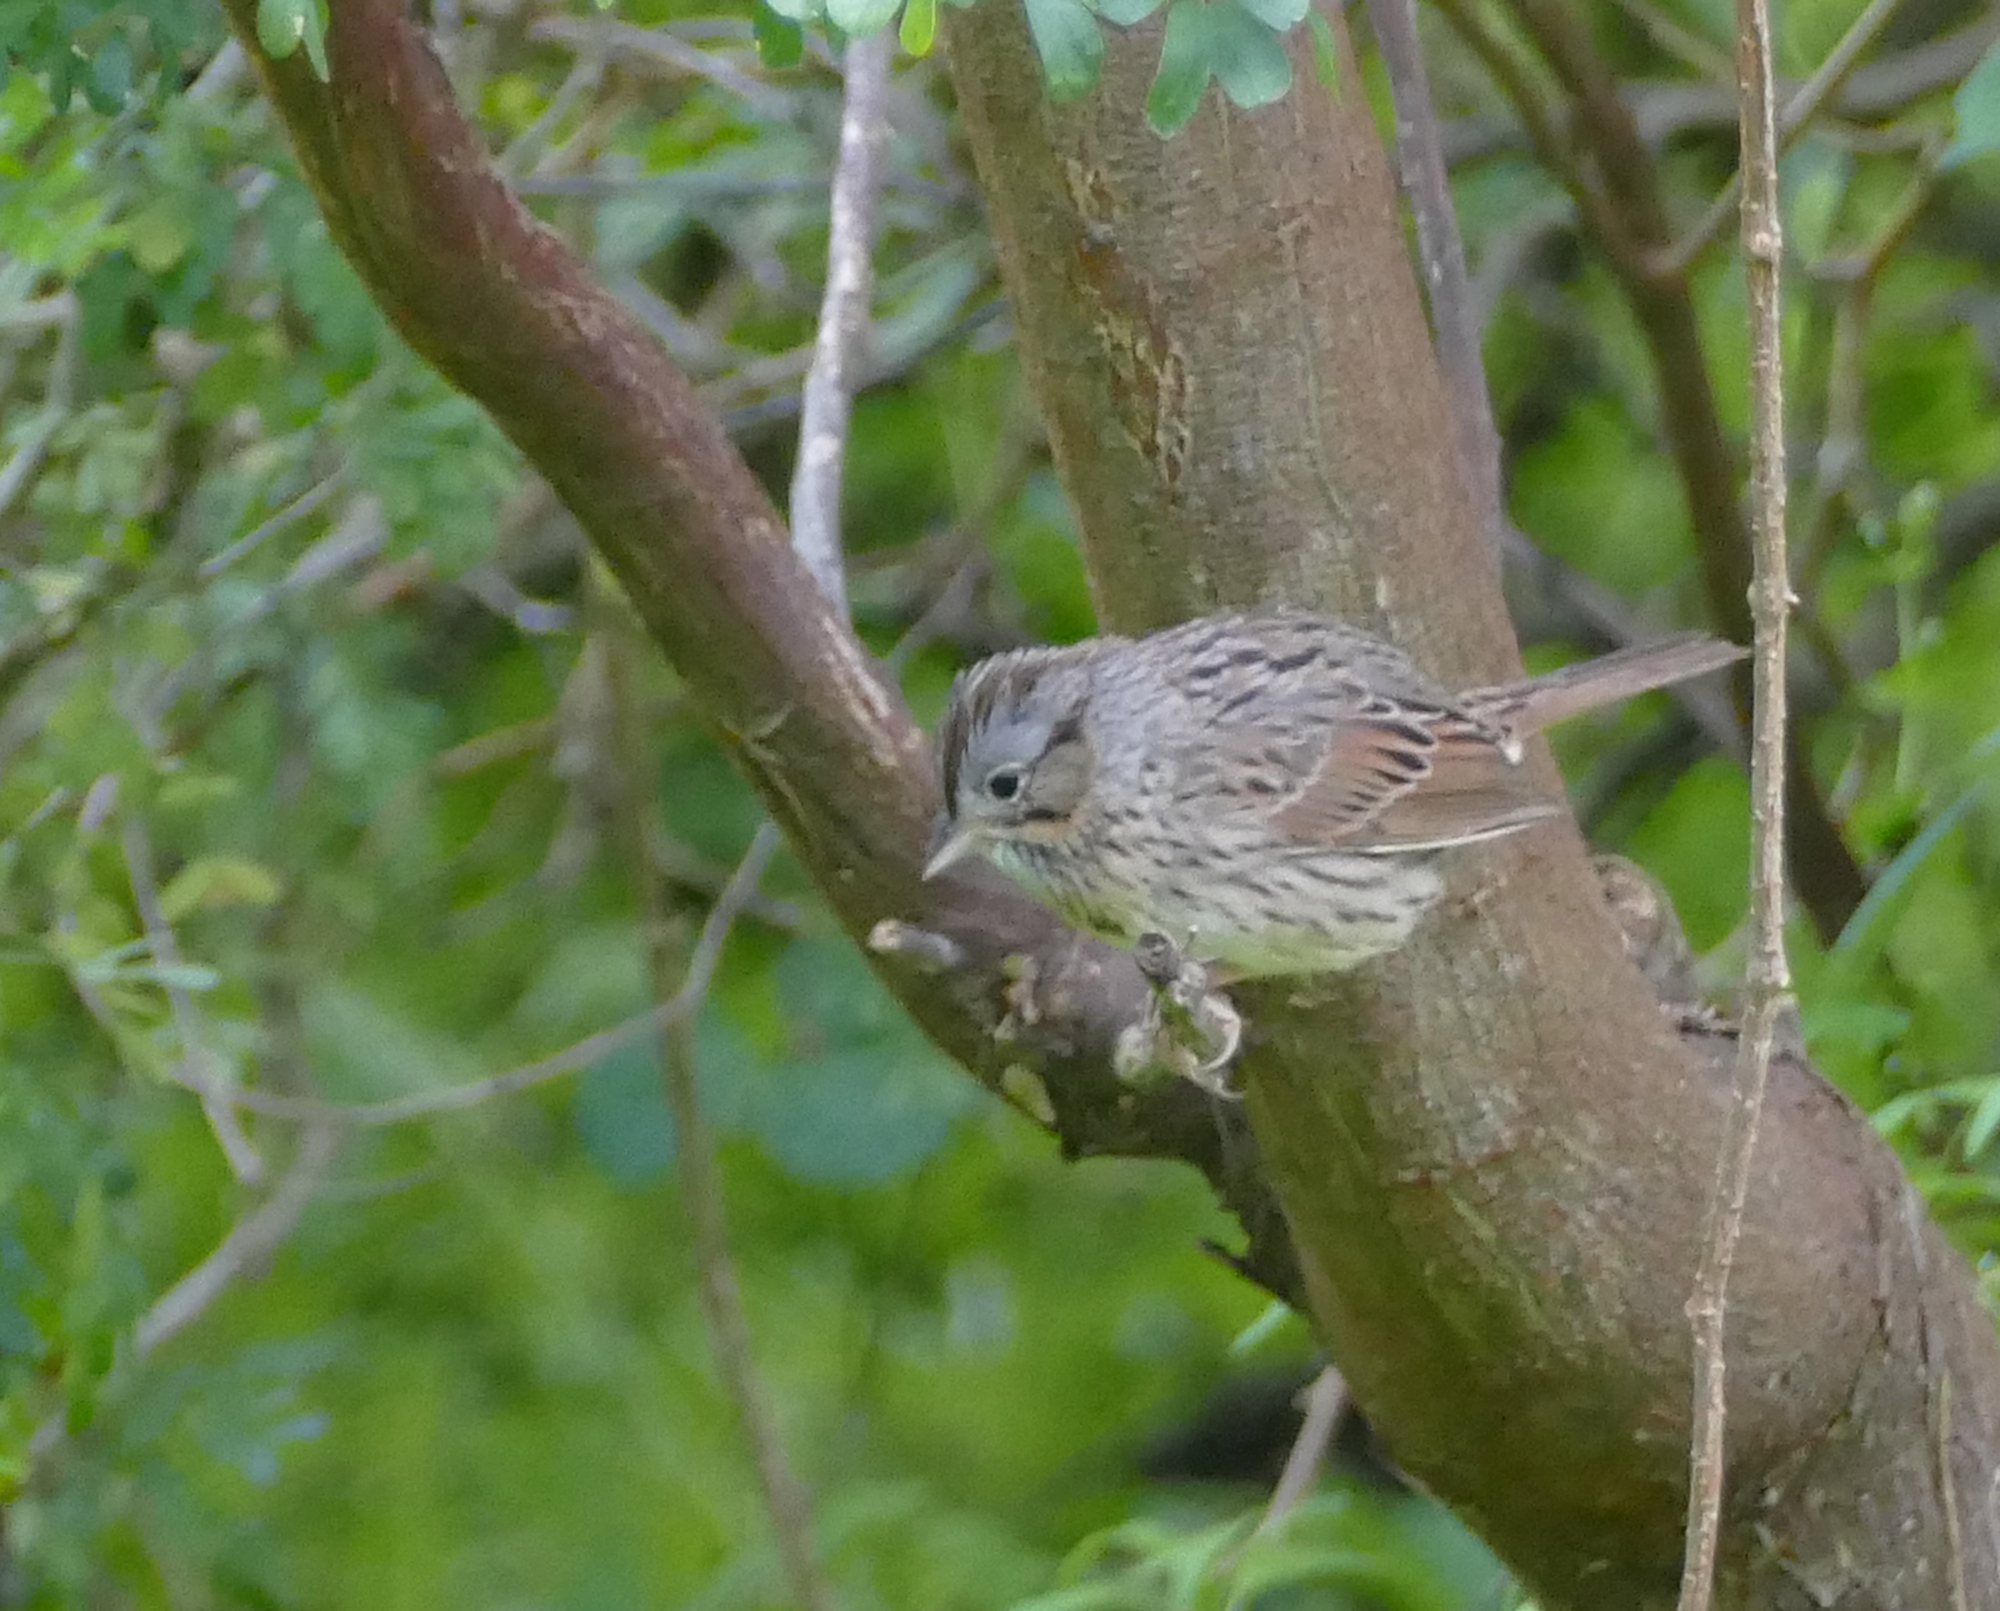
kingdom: Animalia
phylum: Chordata
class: Aves
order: Passeriformes
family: Passerellidae
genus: Melospiza
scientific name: Melospiza lincolnii
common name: Lincoln's sparrow
